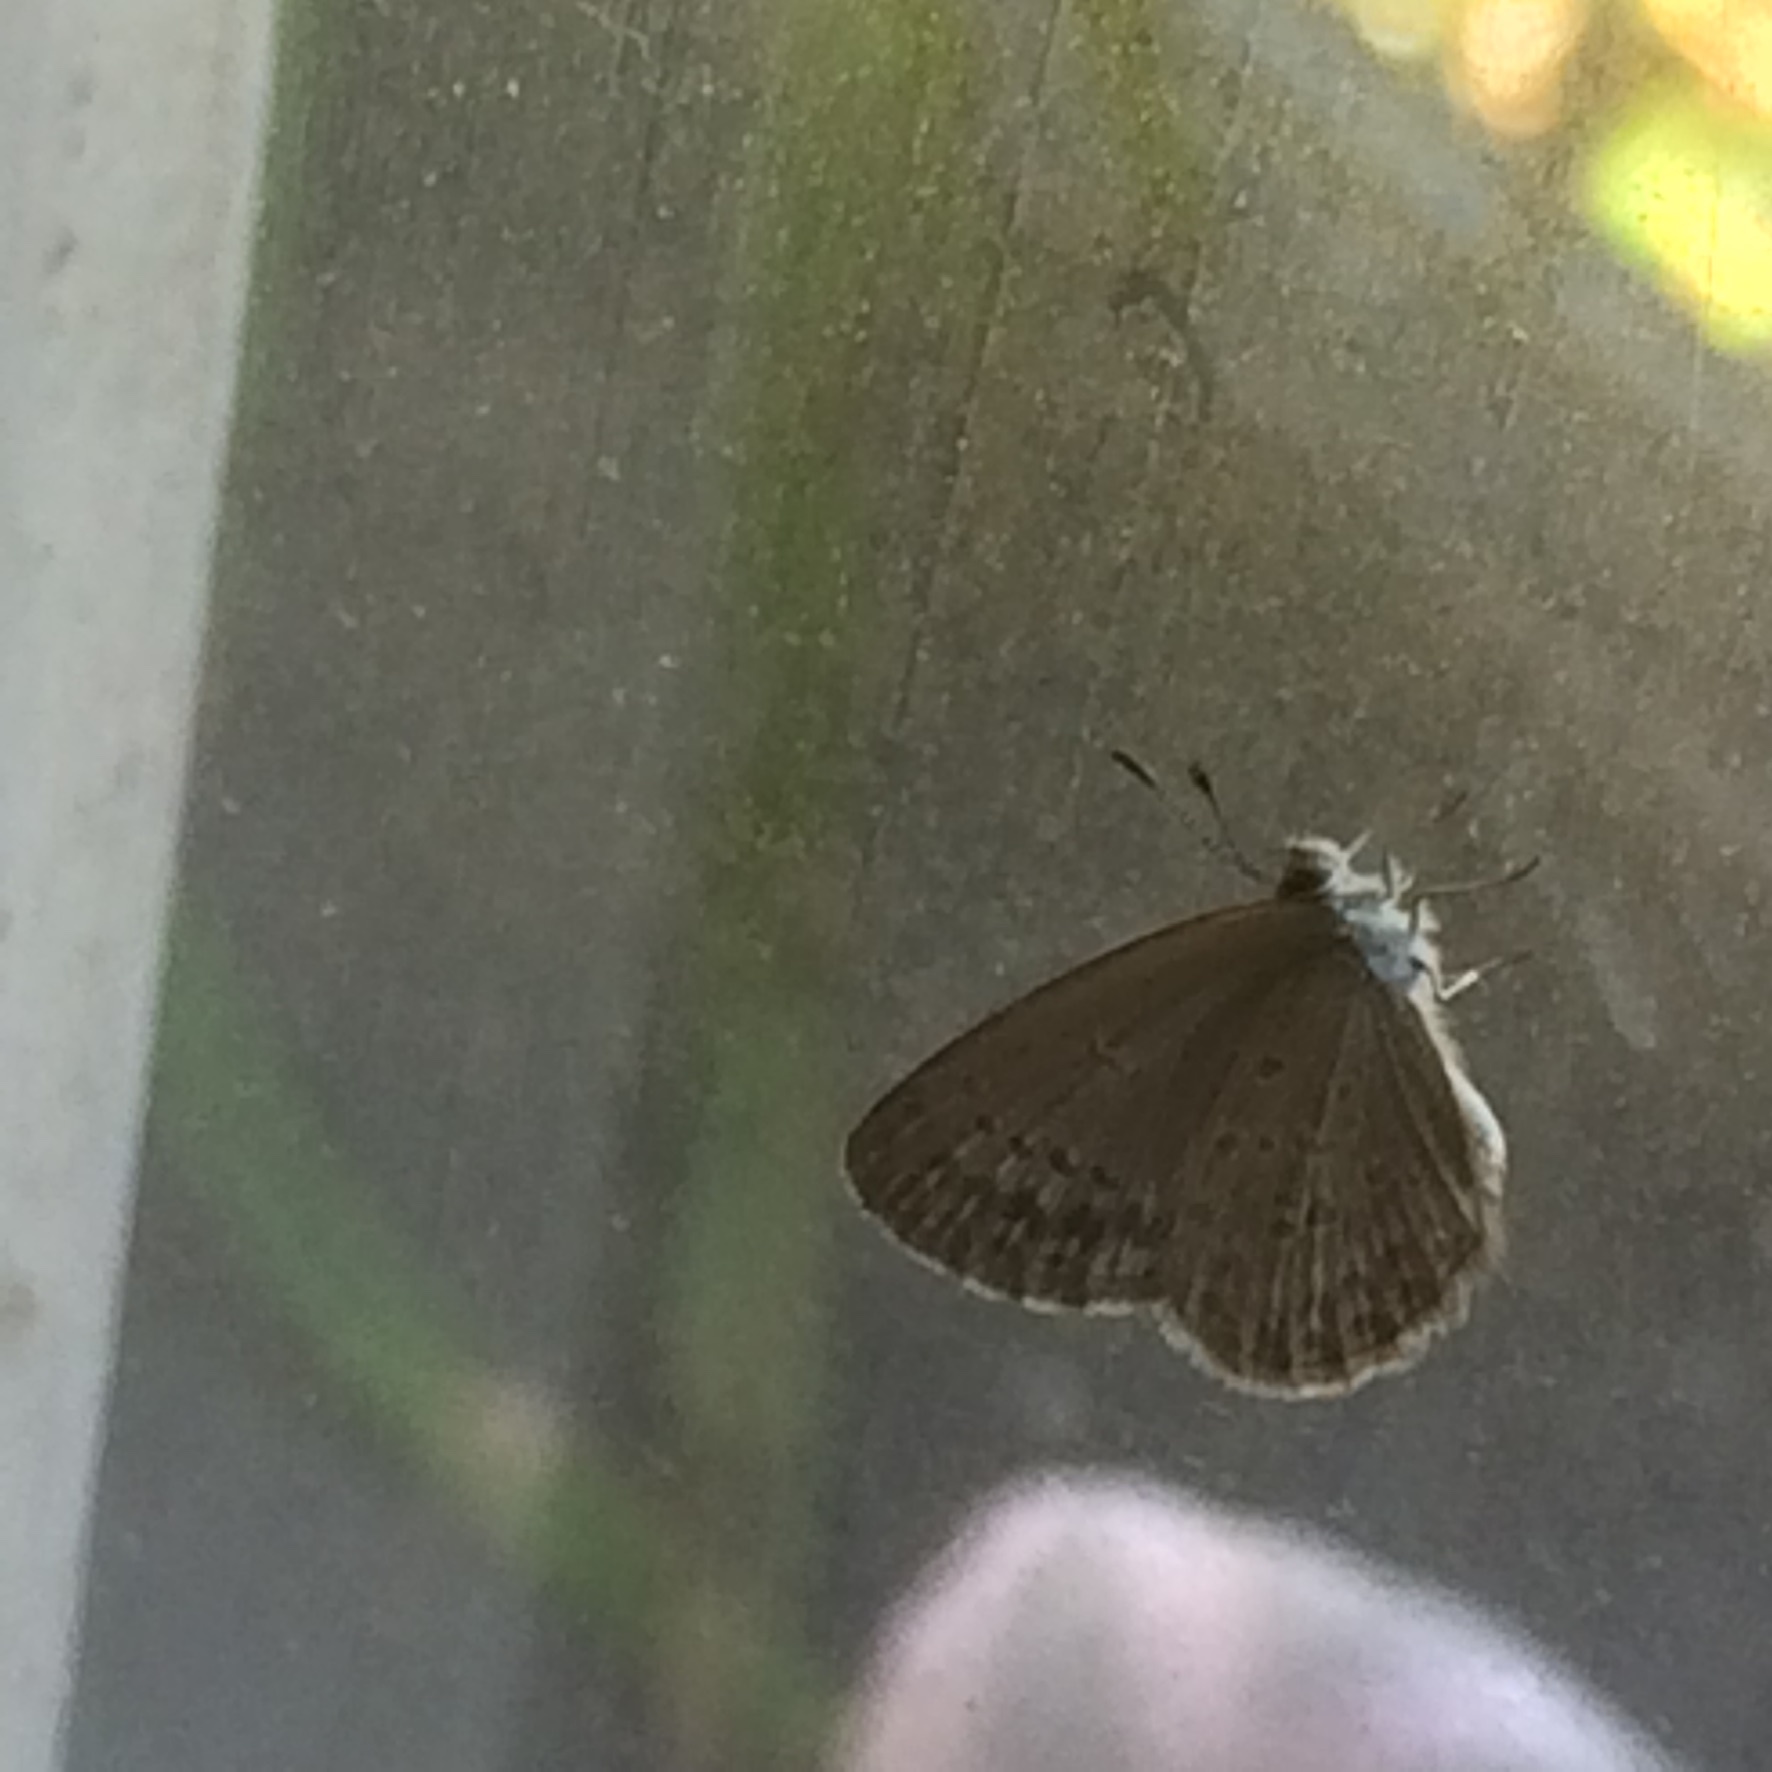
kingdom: Animalia
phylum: Arthropoda
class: Insecta
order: Lepidoptera
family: Lycaenidae
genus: Zizina
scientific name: Zizina otis
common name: Lesser grass blue
